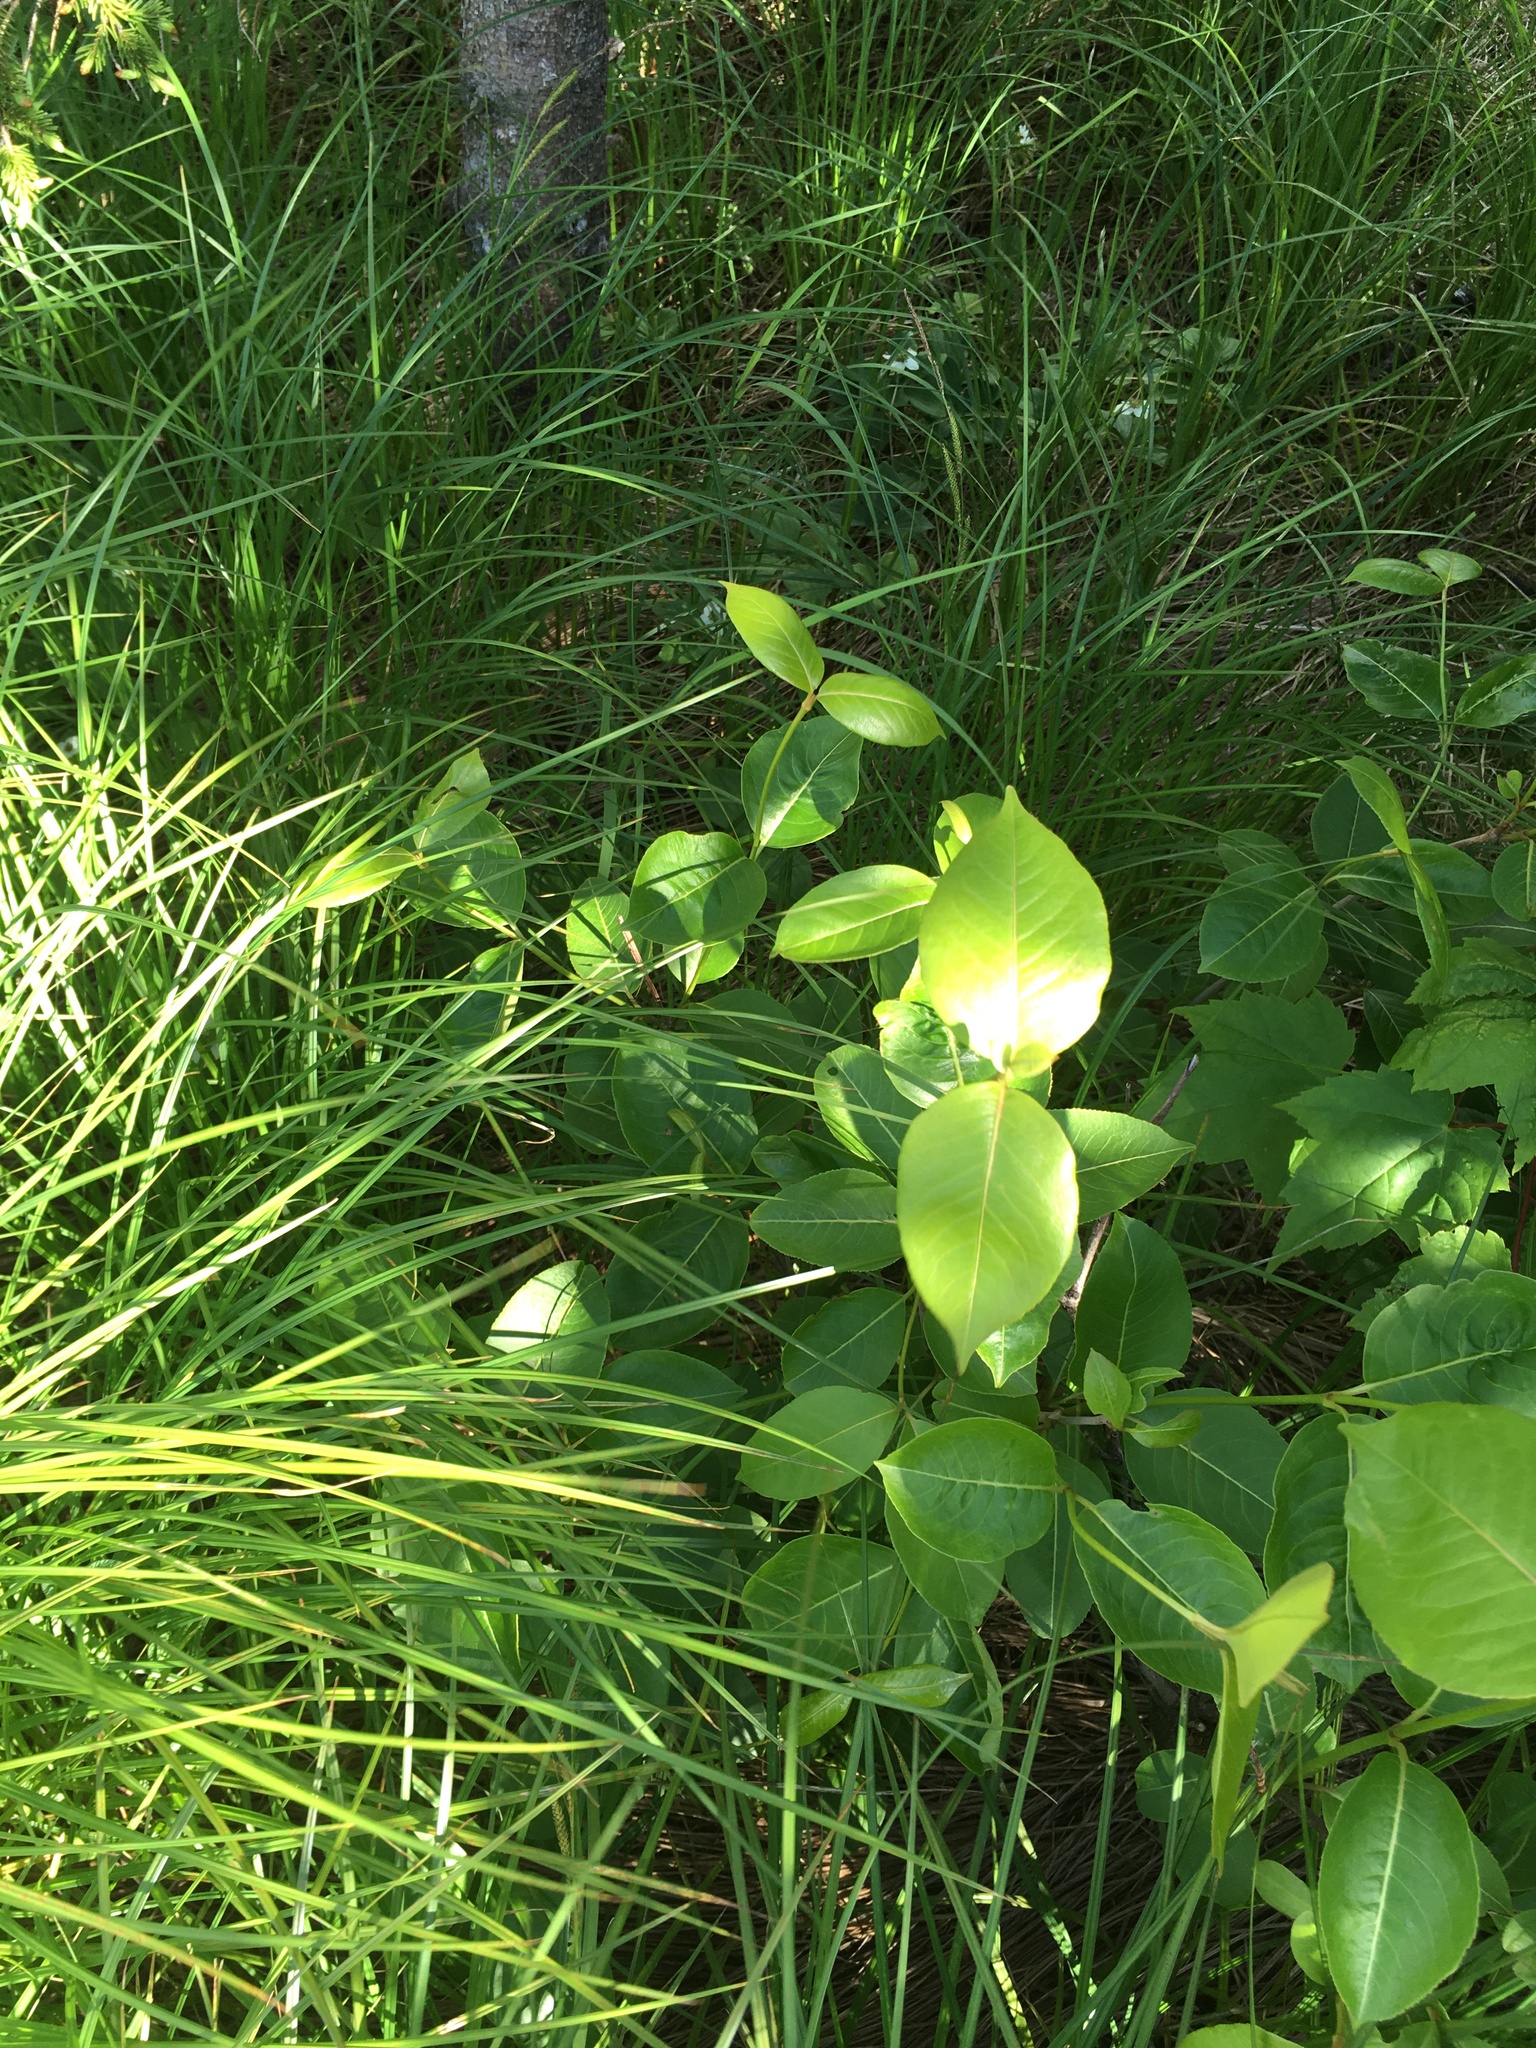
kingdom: Plantae
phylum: Tracheophyta
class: Magnoliopsida
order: Dipsacales
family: Viburnaceae
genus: Viburnum
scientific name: Viburnum cassinoides
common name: Swamp haw
